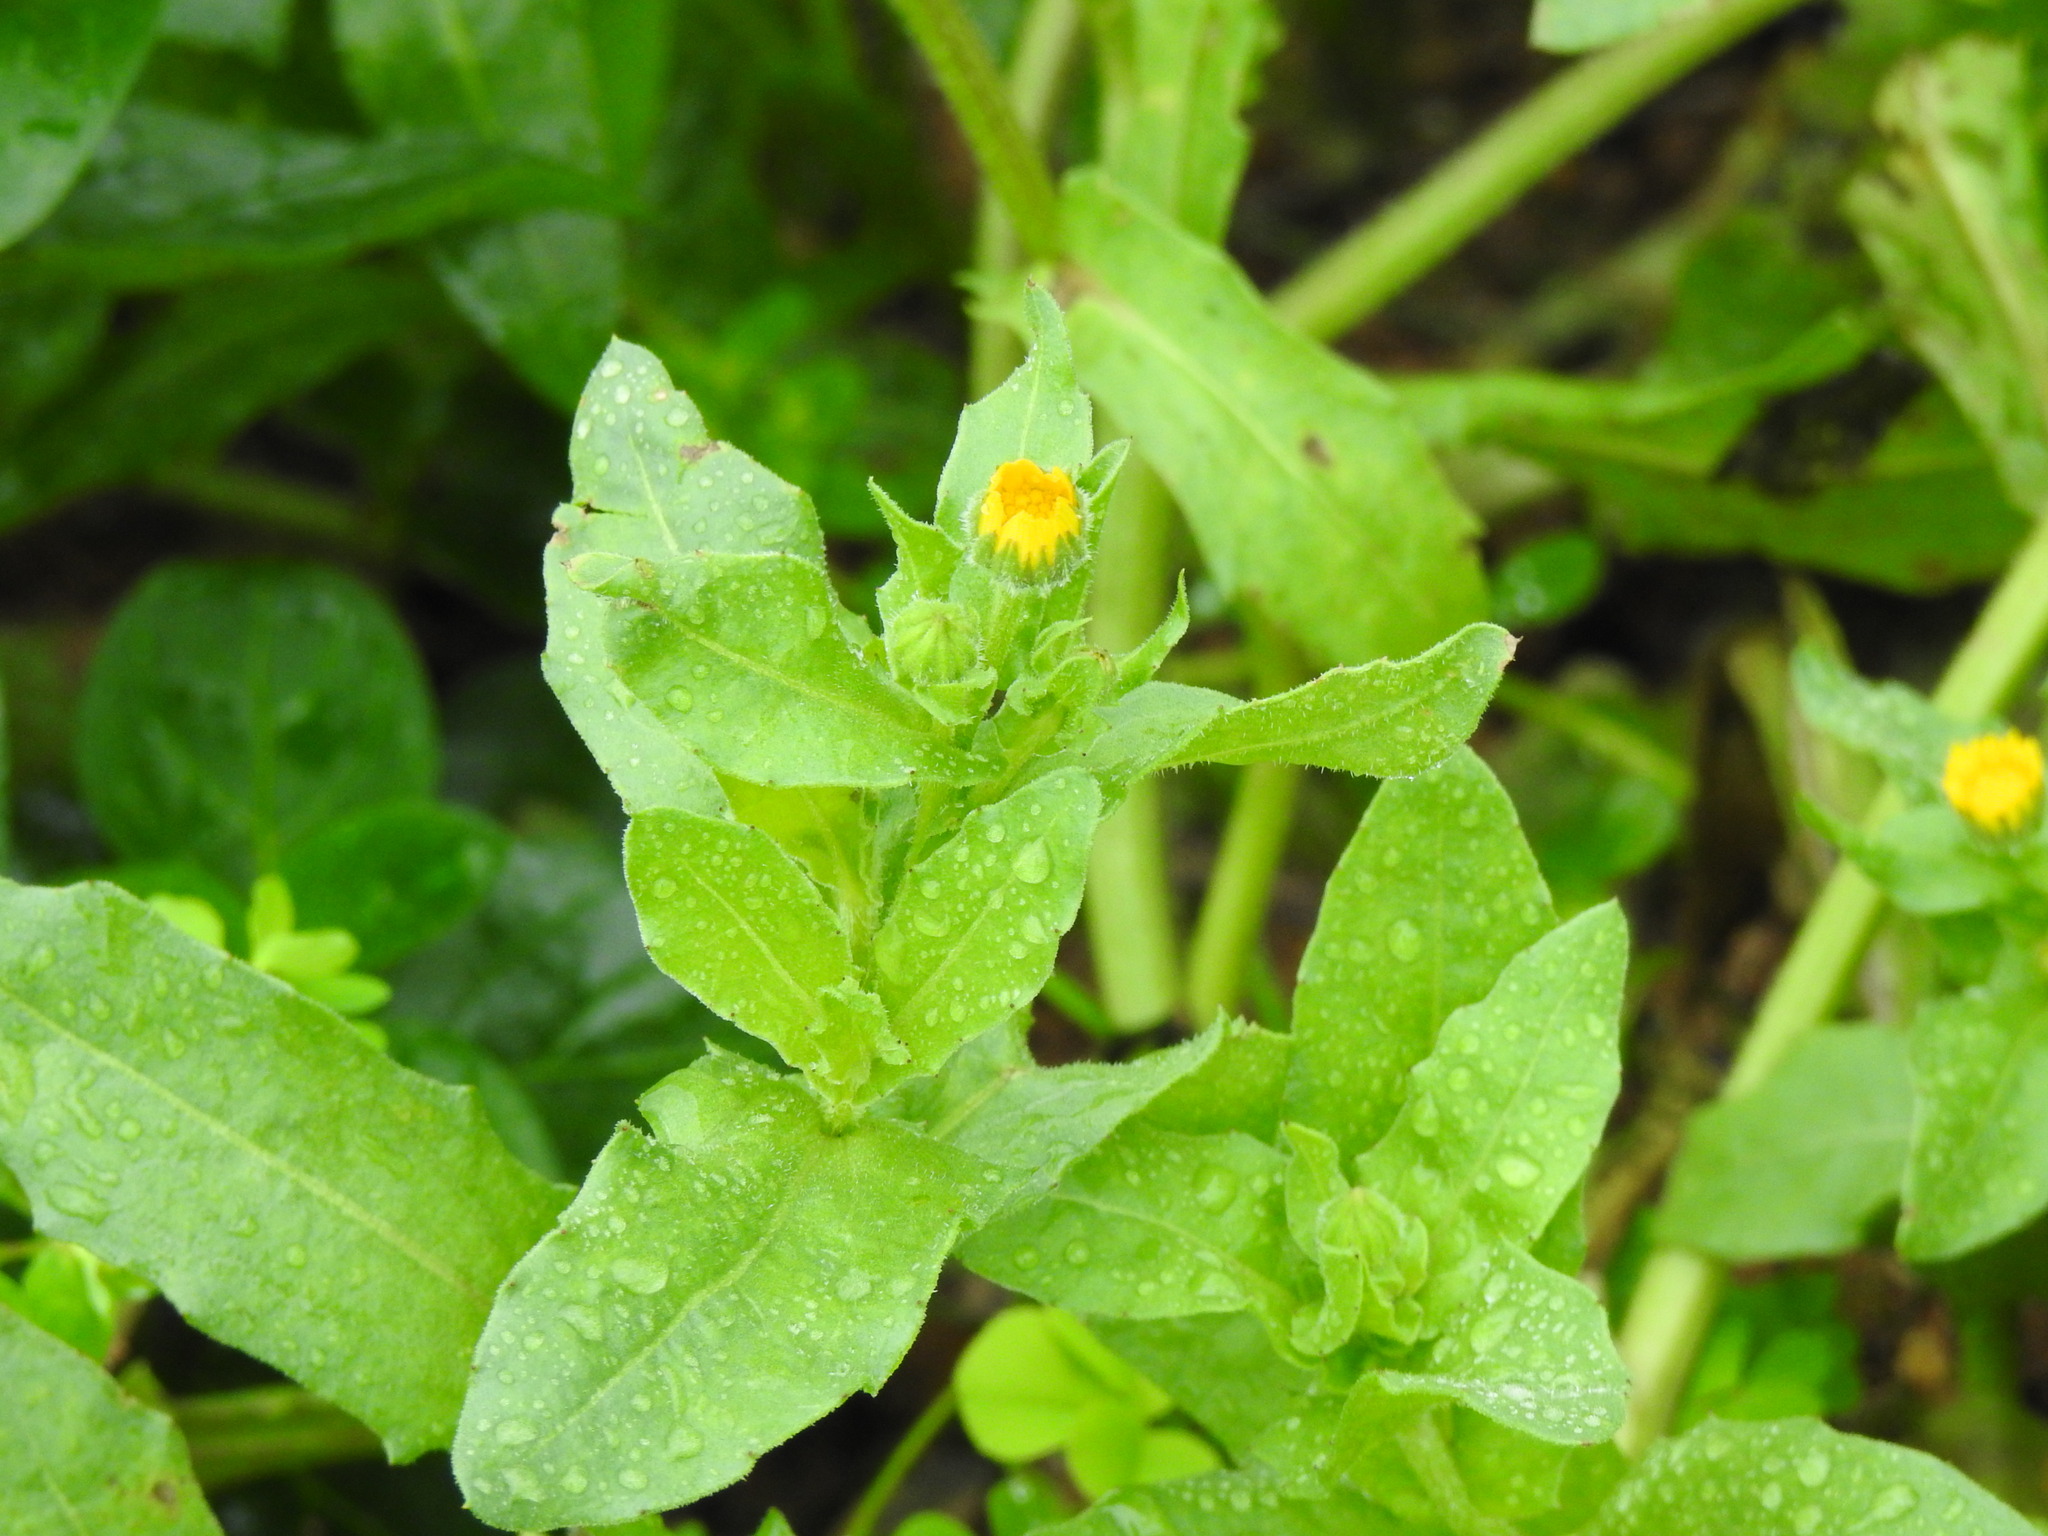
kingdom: Plantae
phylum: Tracheophyta
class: Magnoliopsida
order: Asterales
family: Asteraceae
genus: Calendula
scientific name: Calendula arvensis
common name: Field marigold
